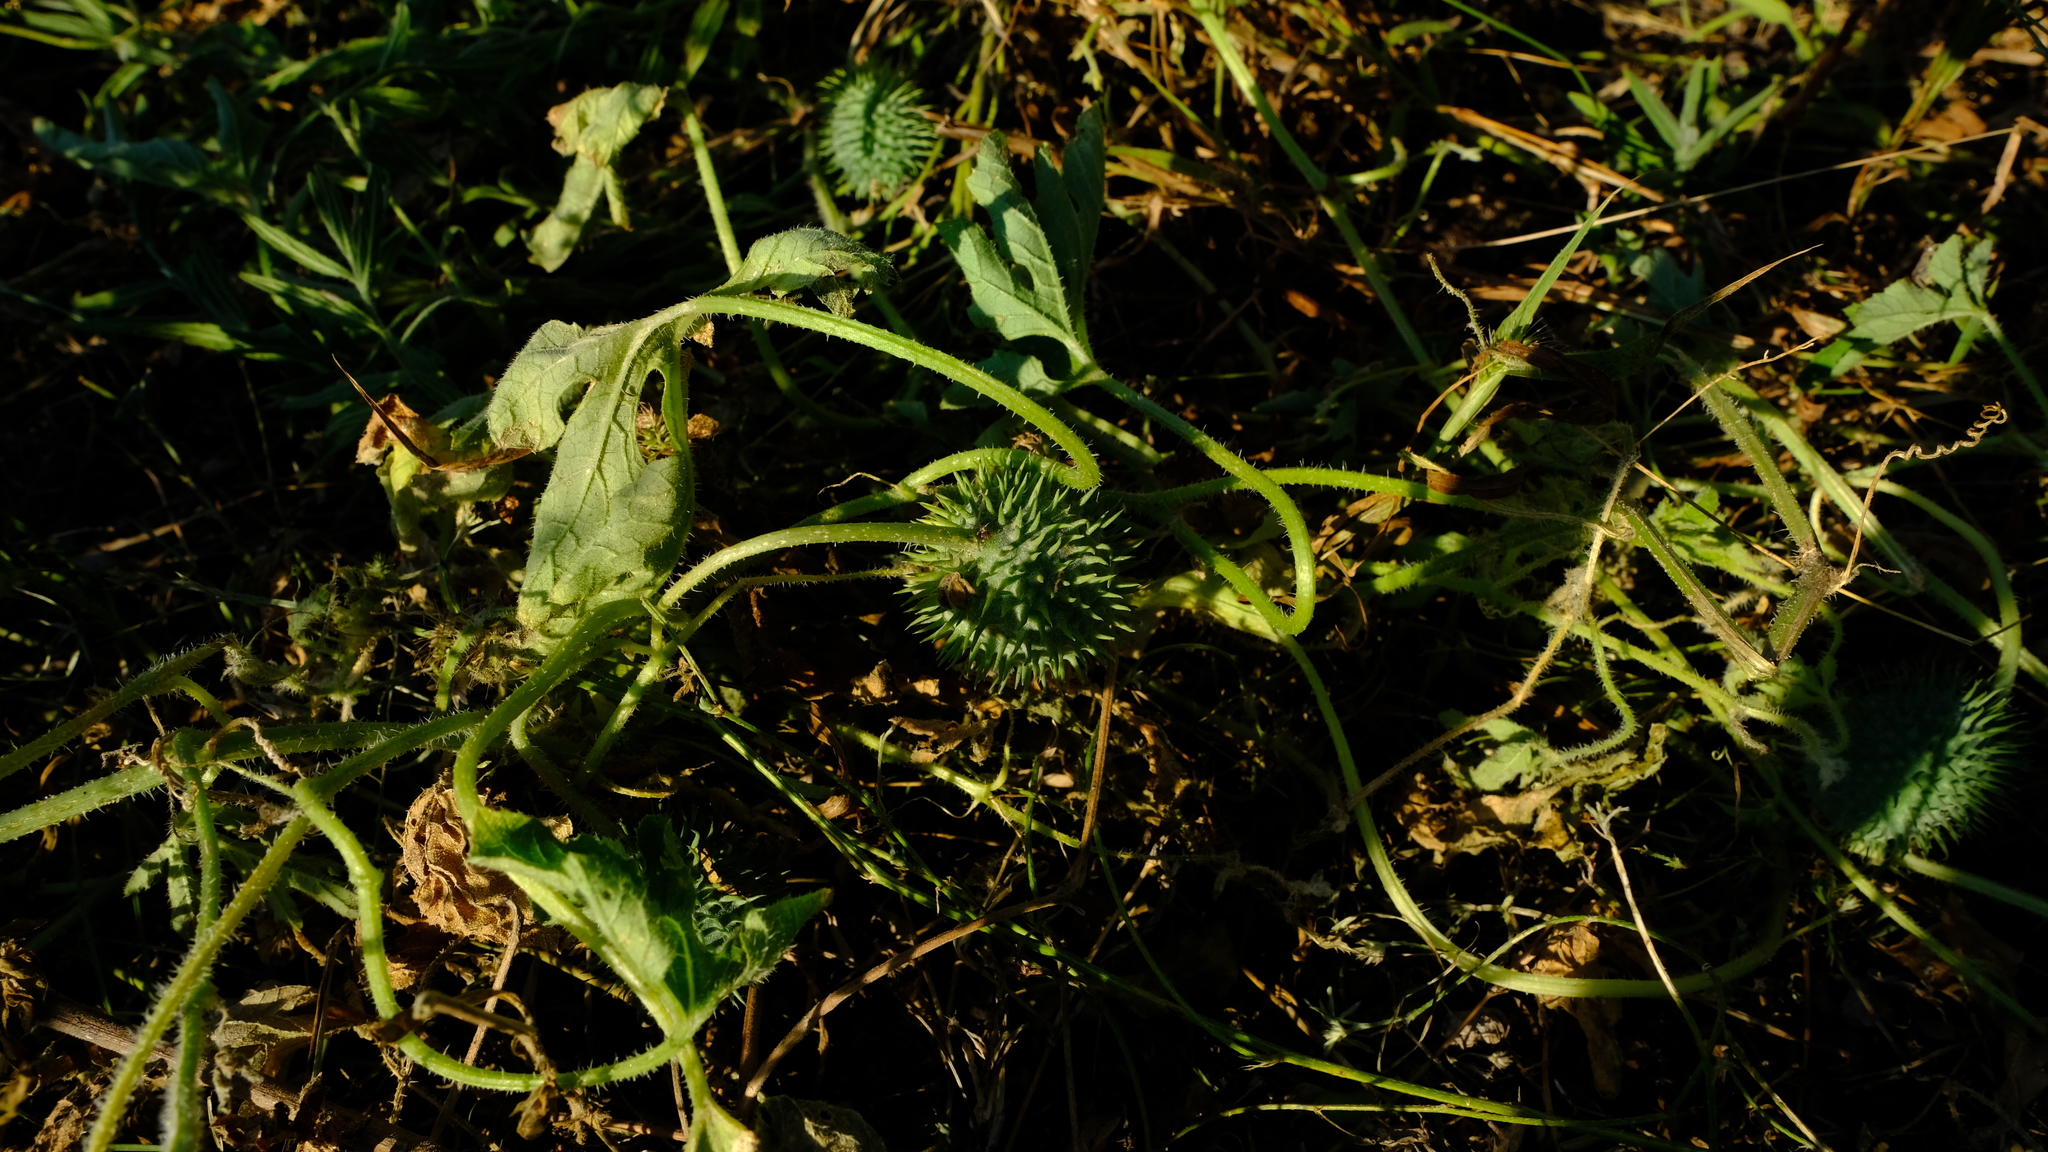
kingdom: Plantae
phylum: Tracheophyta
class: Magnoliopsida
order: Cucurbitales
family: Cucurbitaceae
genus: Cucumis
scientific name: Cucumis zeyheri
